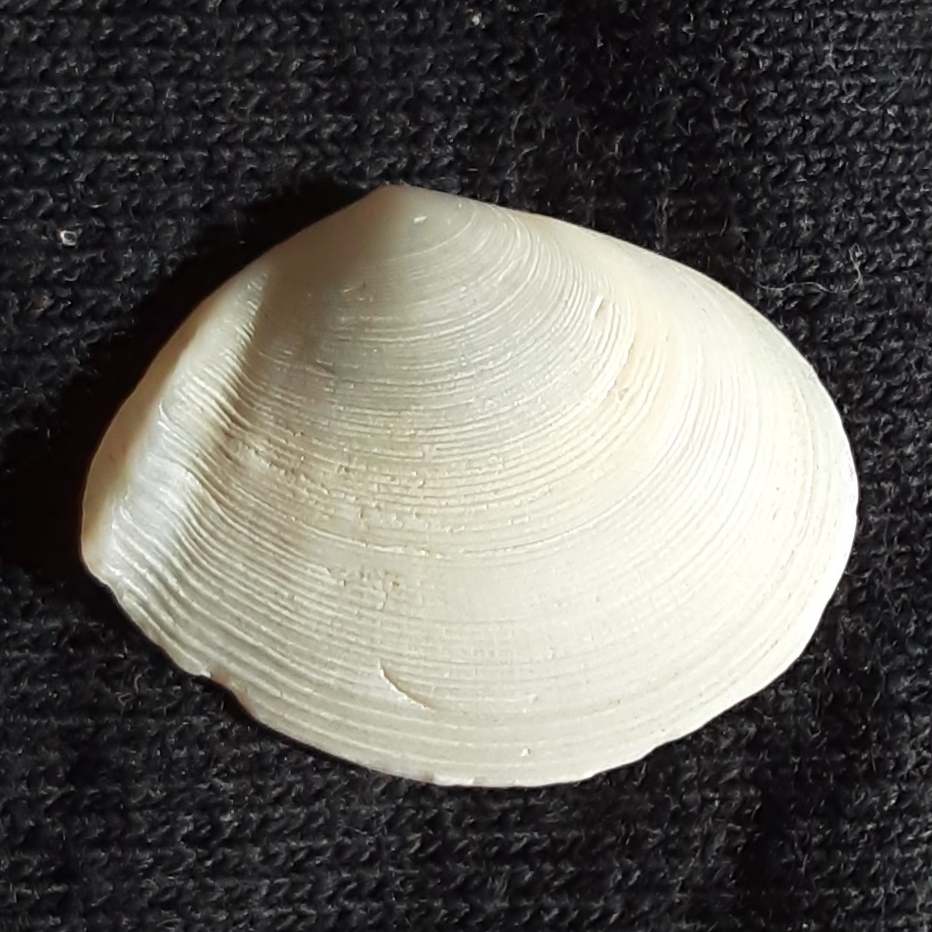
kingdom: Animalia
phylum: Mollusca
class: Bivalvia
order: Cardiida
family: Tellinidae
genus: Austromacoma
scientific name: Austromacoma constricta
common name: Constricted macoma
